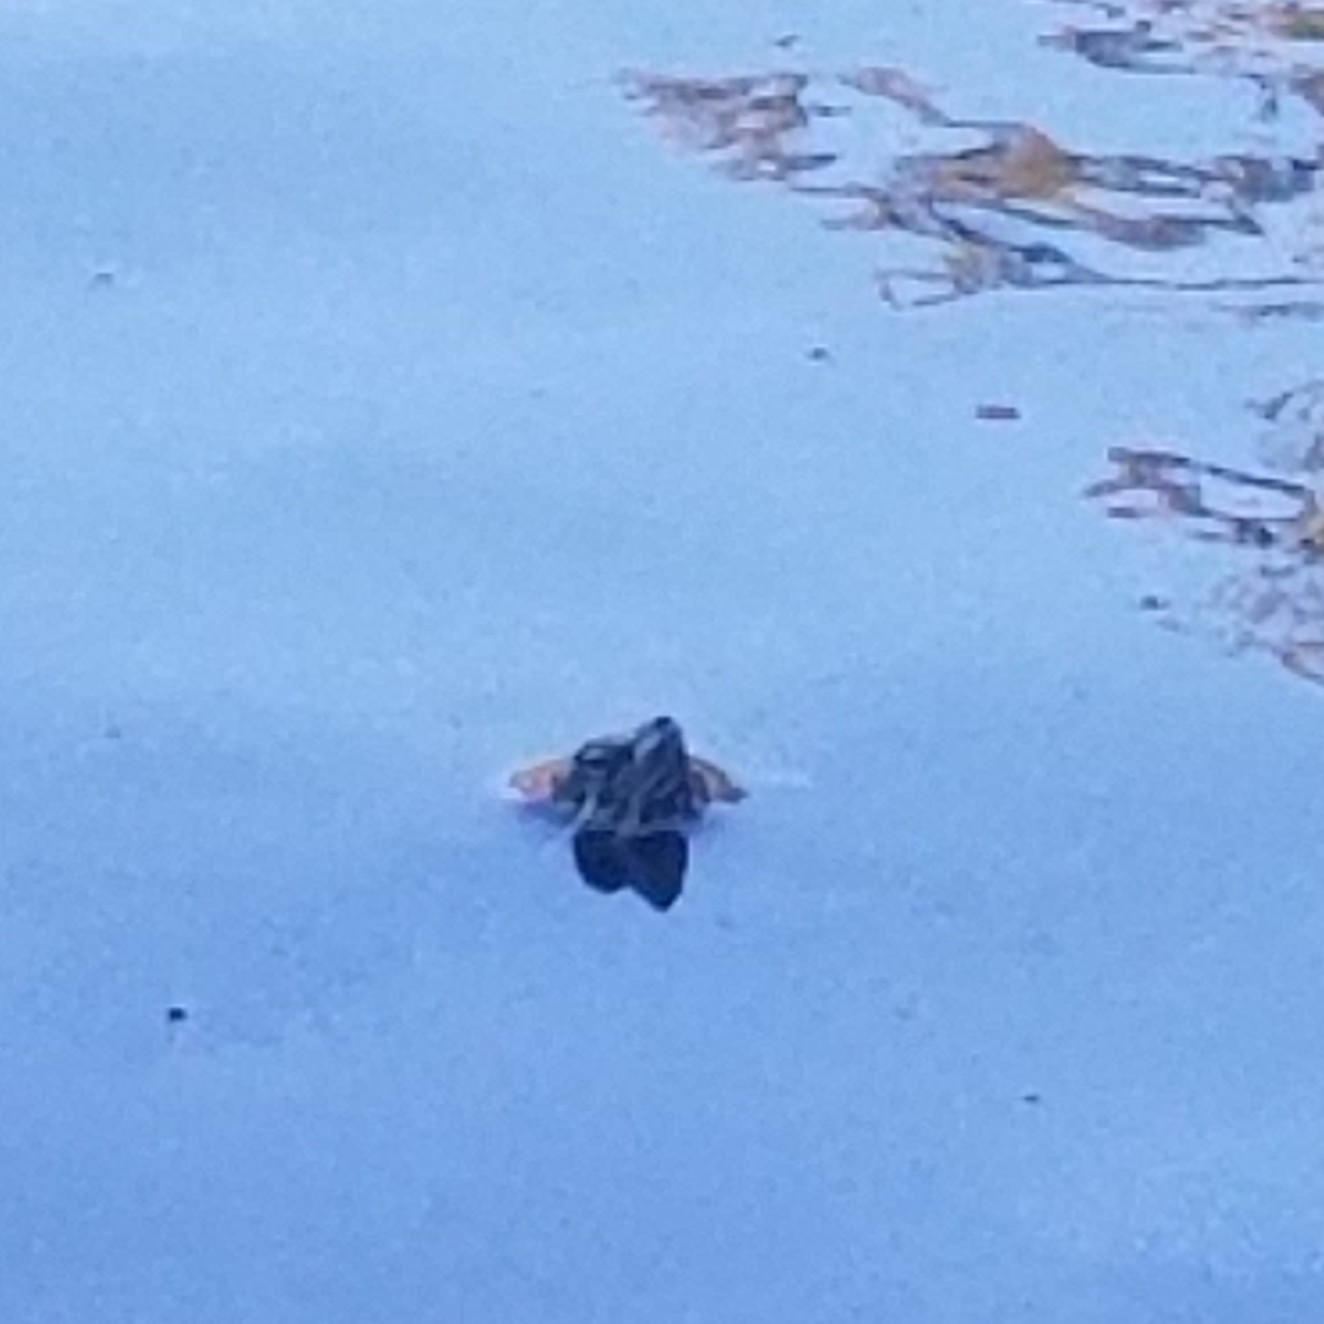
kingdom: Animalia
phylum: Chordata
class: Testudines
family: Emydidae
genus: Trachemys
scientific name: Trachemys scripta
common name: Slider
